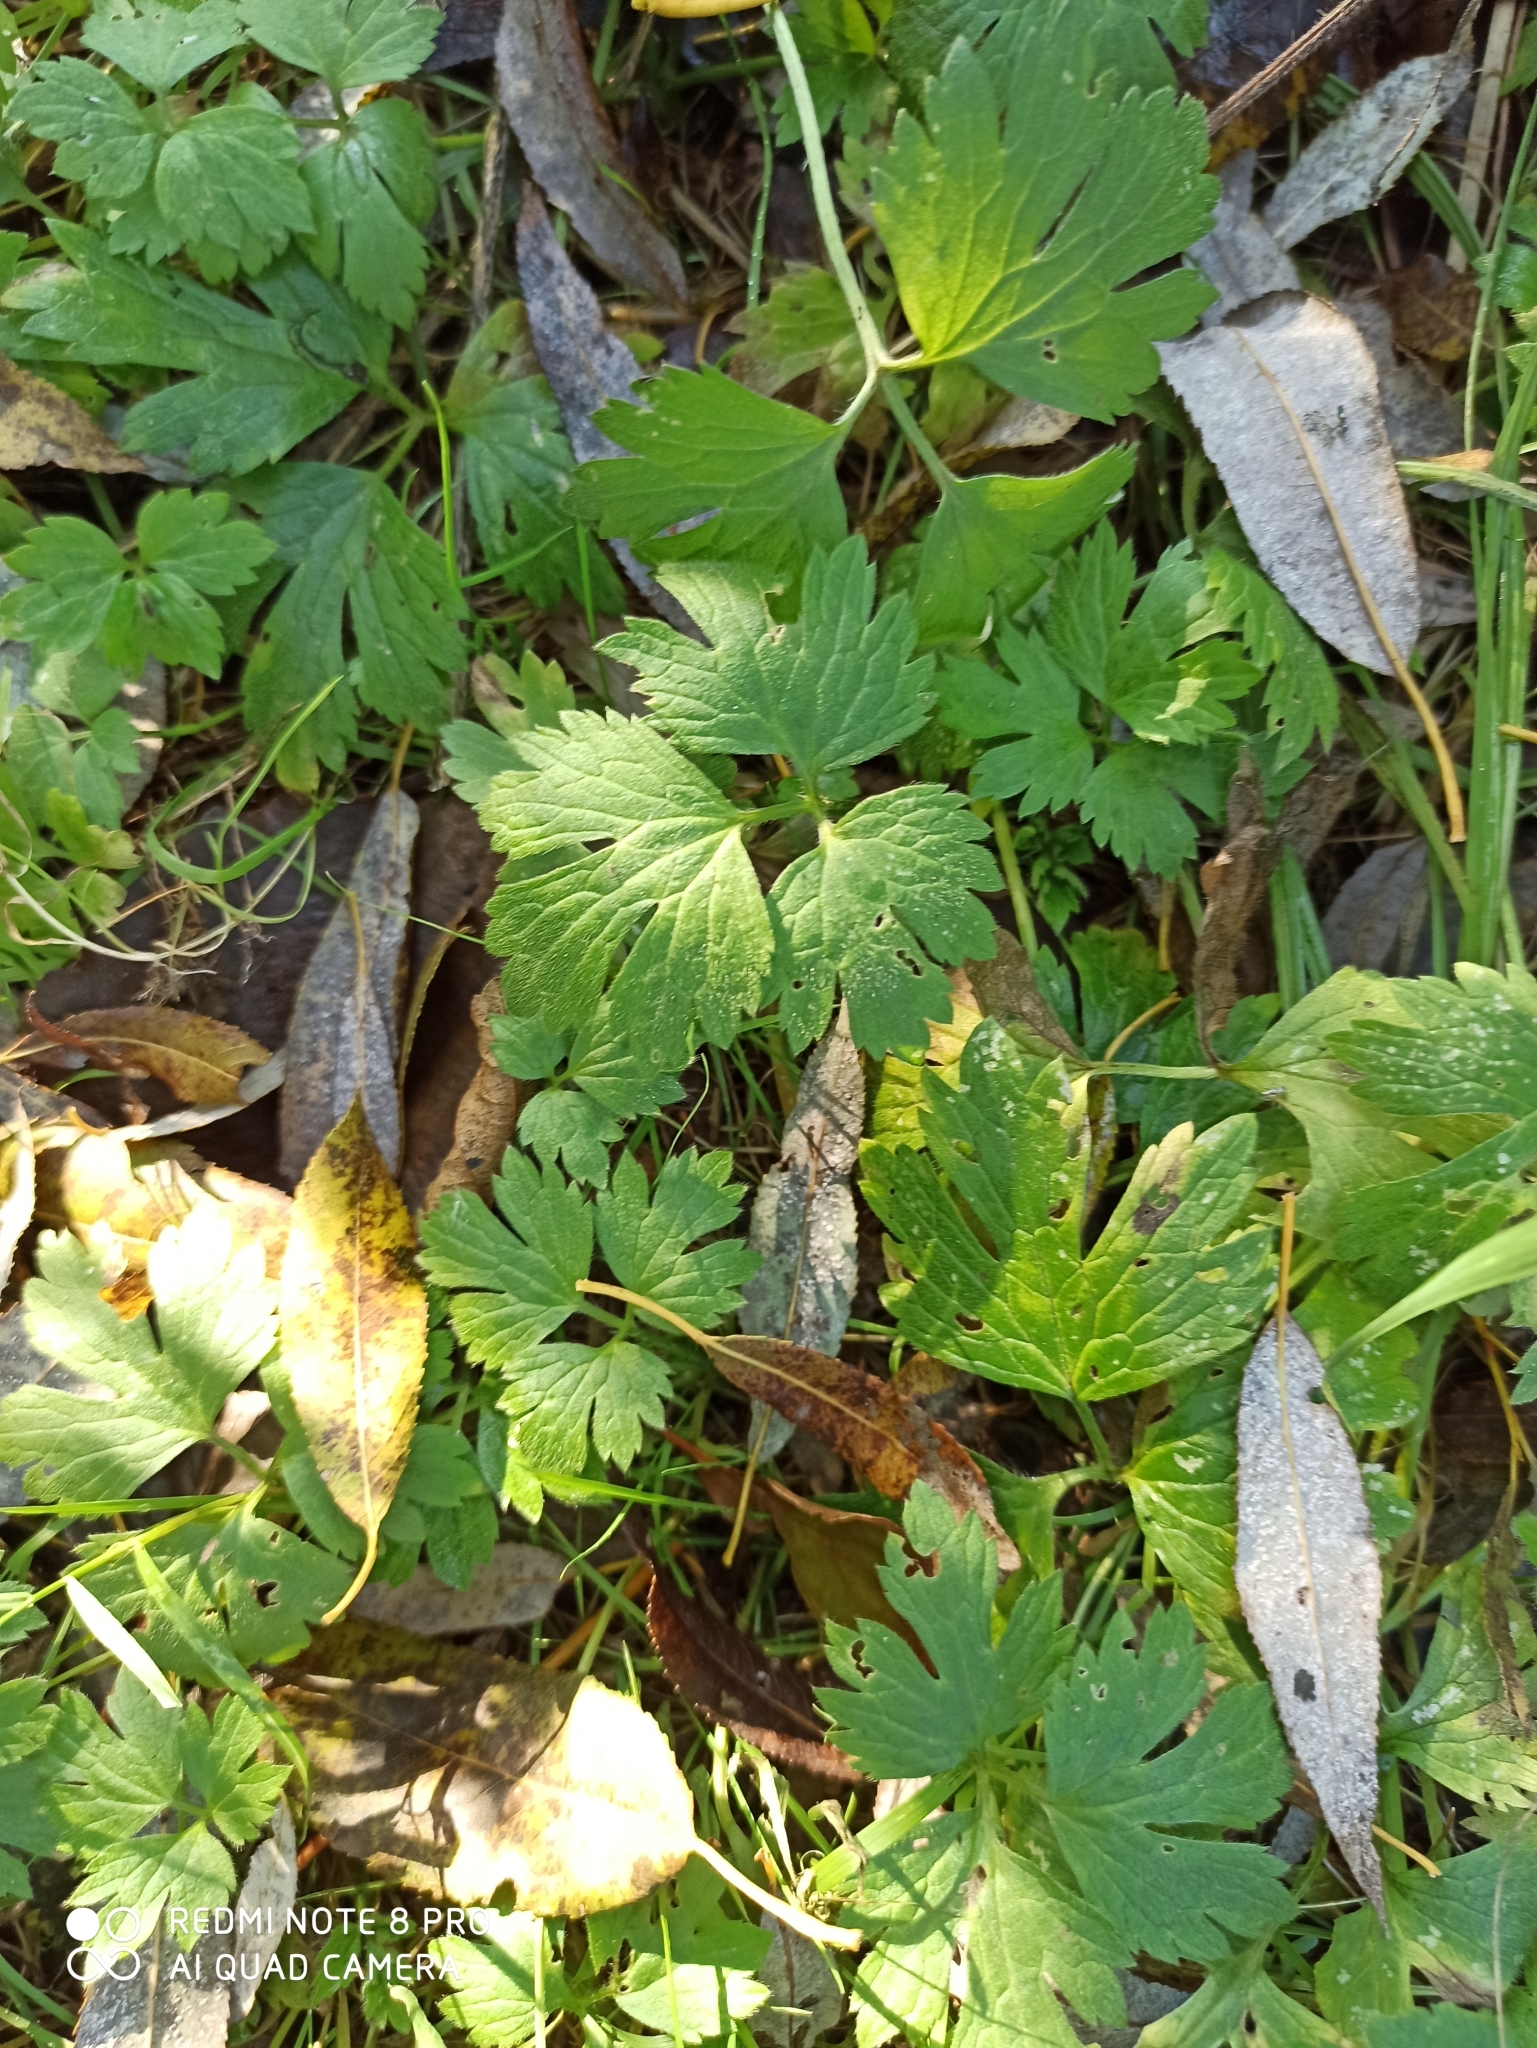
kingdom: Plantae
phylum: Tracheophyta
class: Magnoliopsida
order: Ranunculales
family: Ranunculaceae
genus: Ranunculus
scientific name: Ranunculus repens
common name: Creeping buttercup
